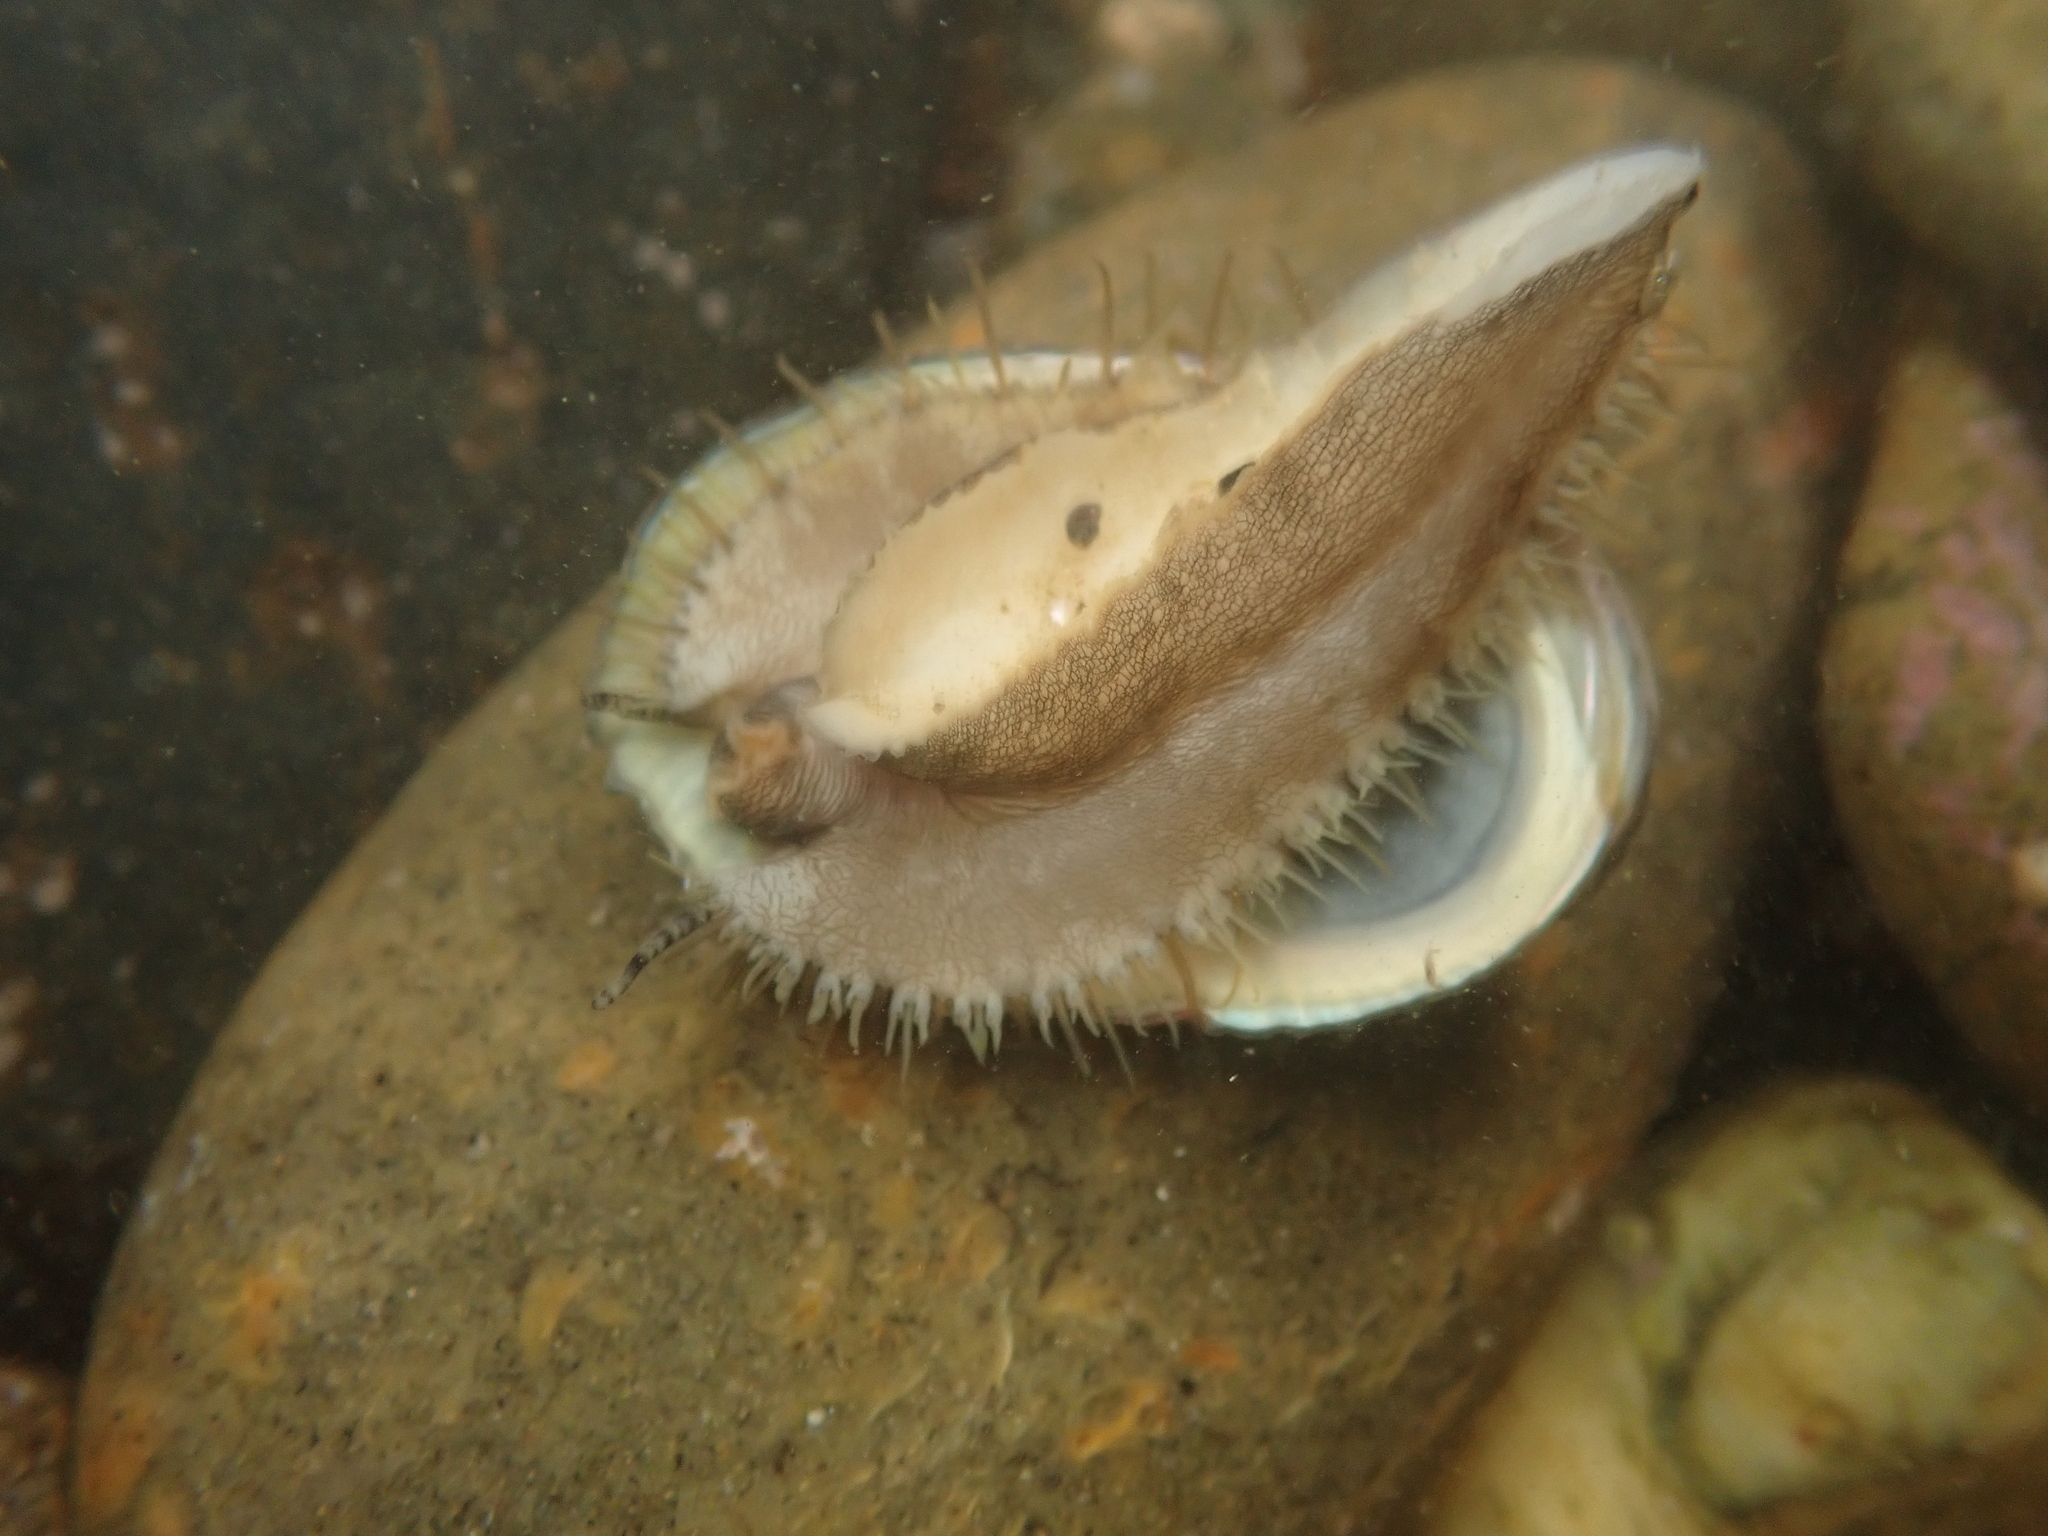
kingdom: Animalia
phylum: Mollusca
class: Gastropoda
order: Lepetellida
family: Haliotidae
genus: Haliotis
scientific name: Haliotis virginea
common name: Whitefoot paua
